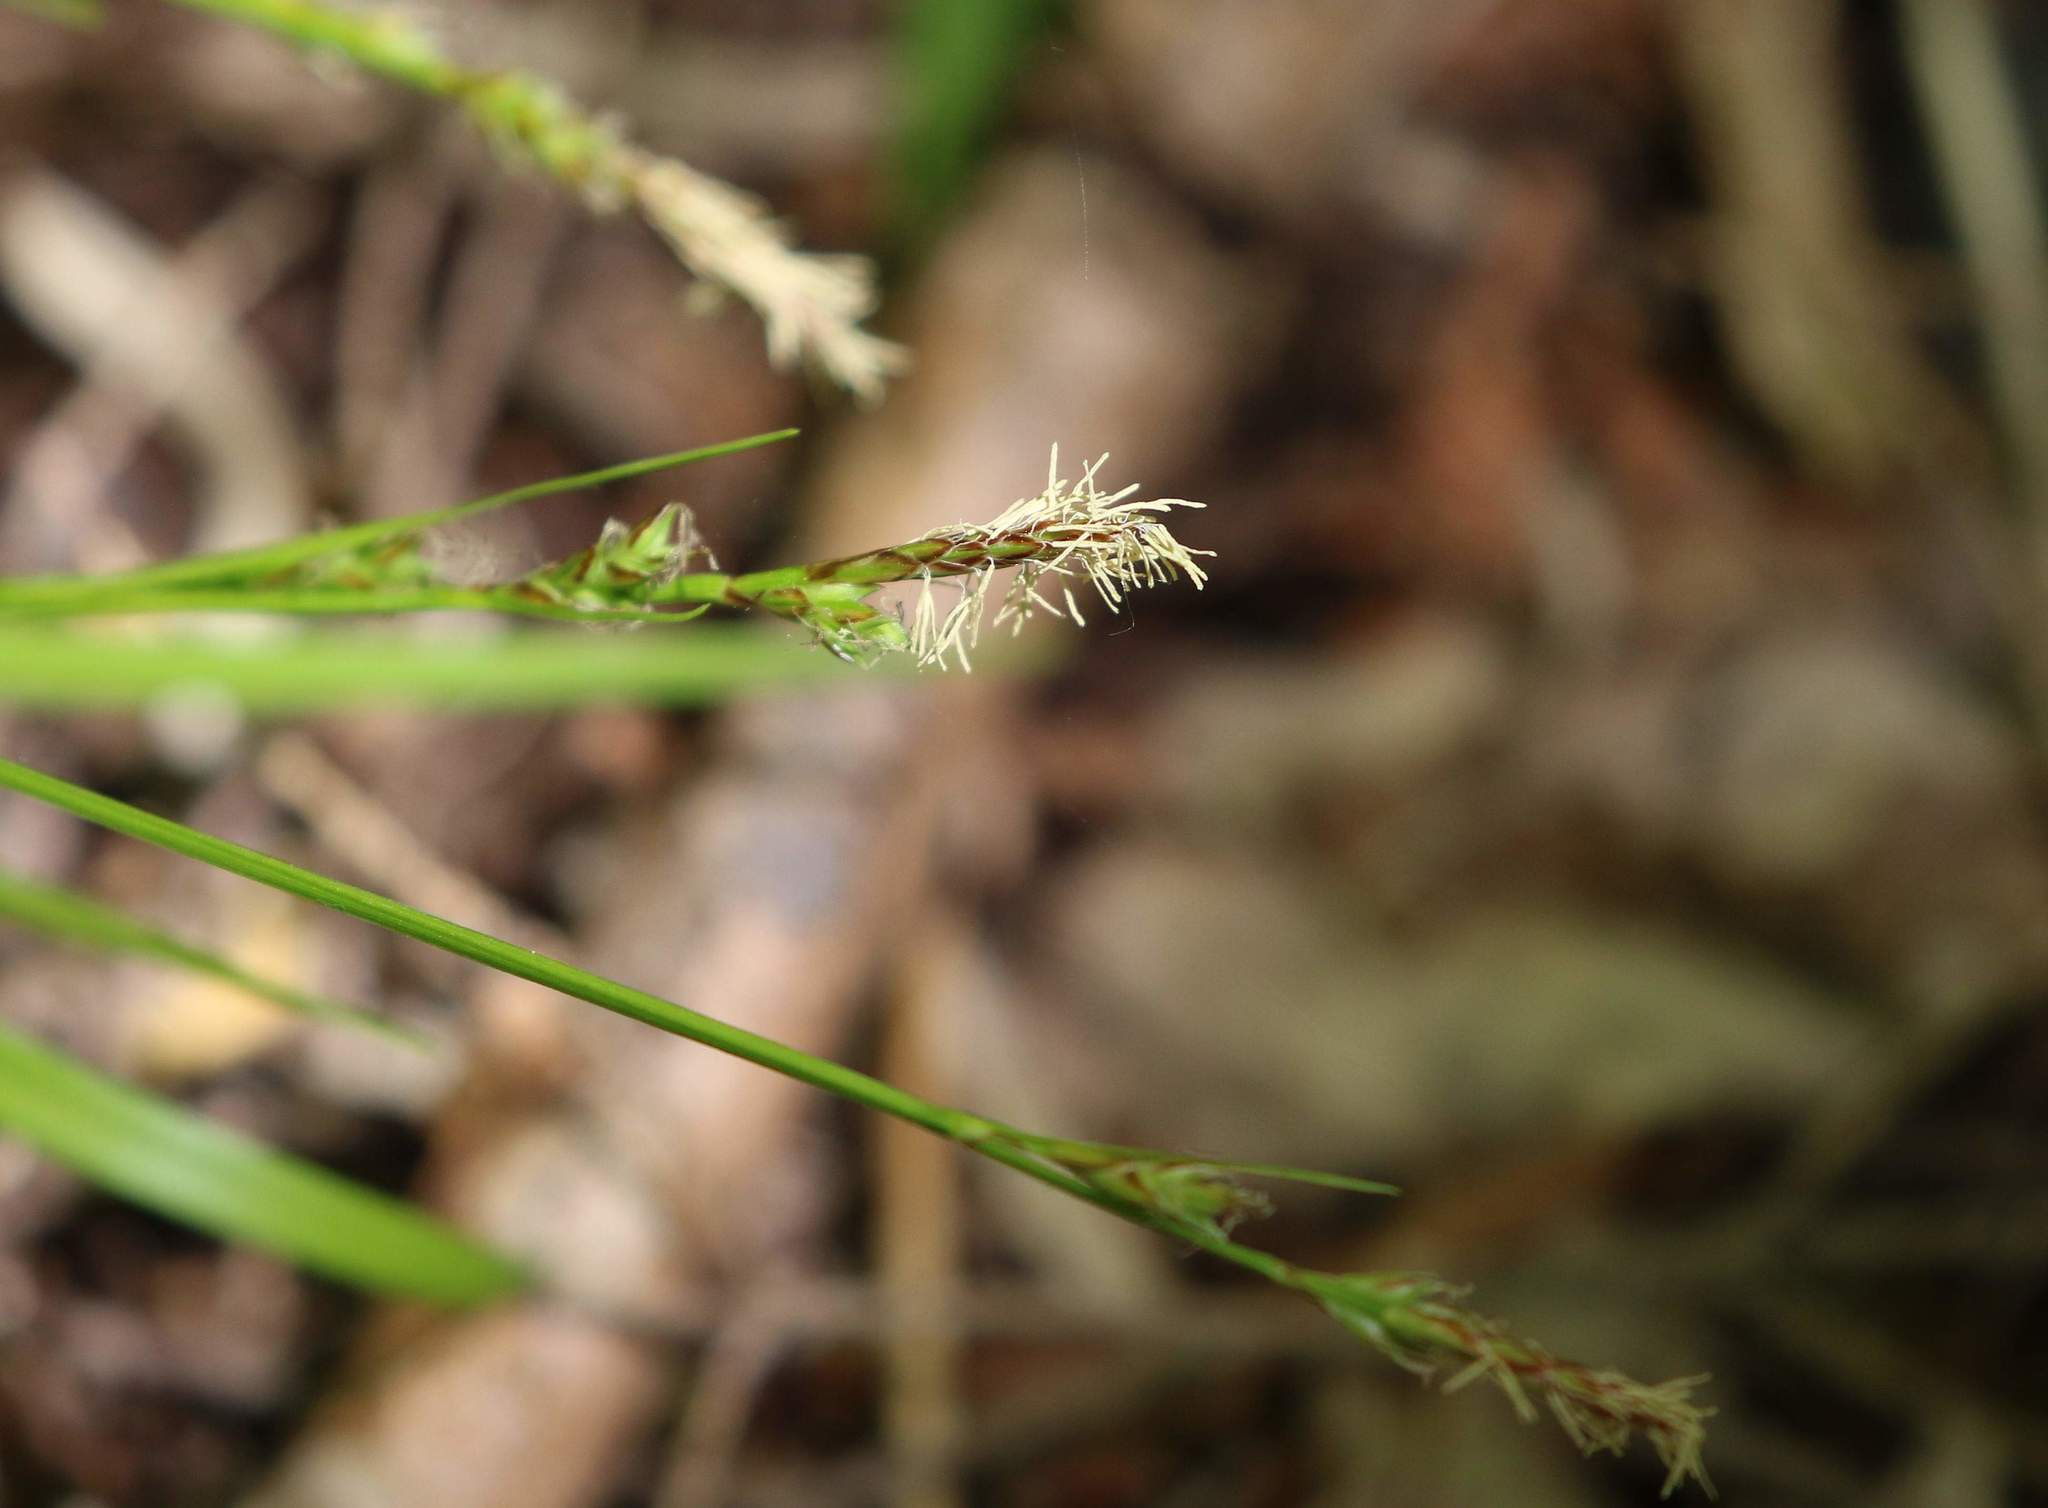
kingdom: Plantae
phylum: Tracheophyta
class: Liliopsida
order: Poales
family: Cyperaceae
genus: Carex
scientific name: Carex communis
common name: Colonial oak sedge
